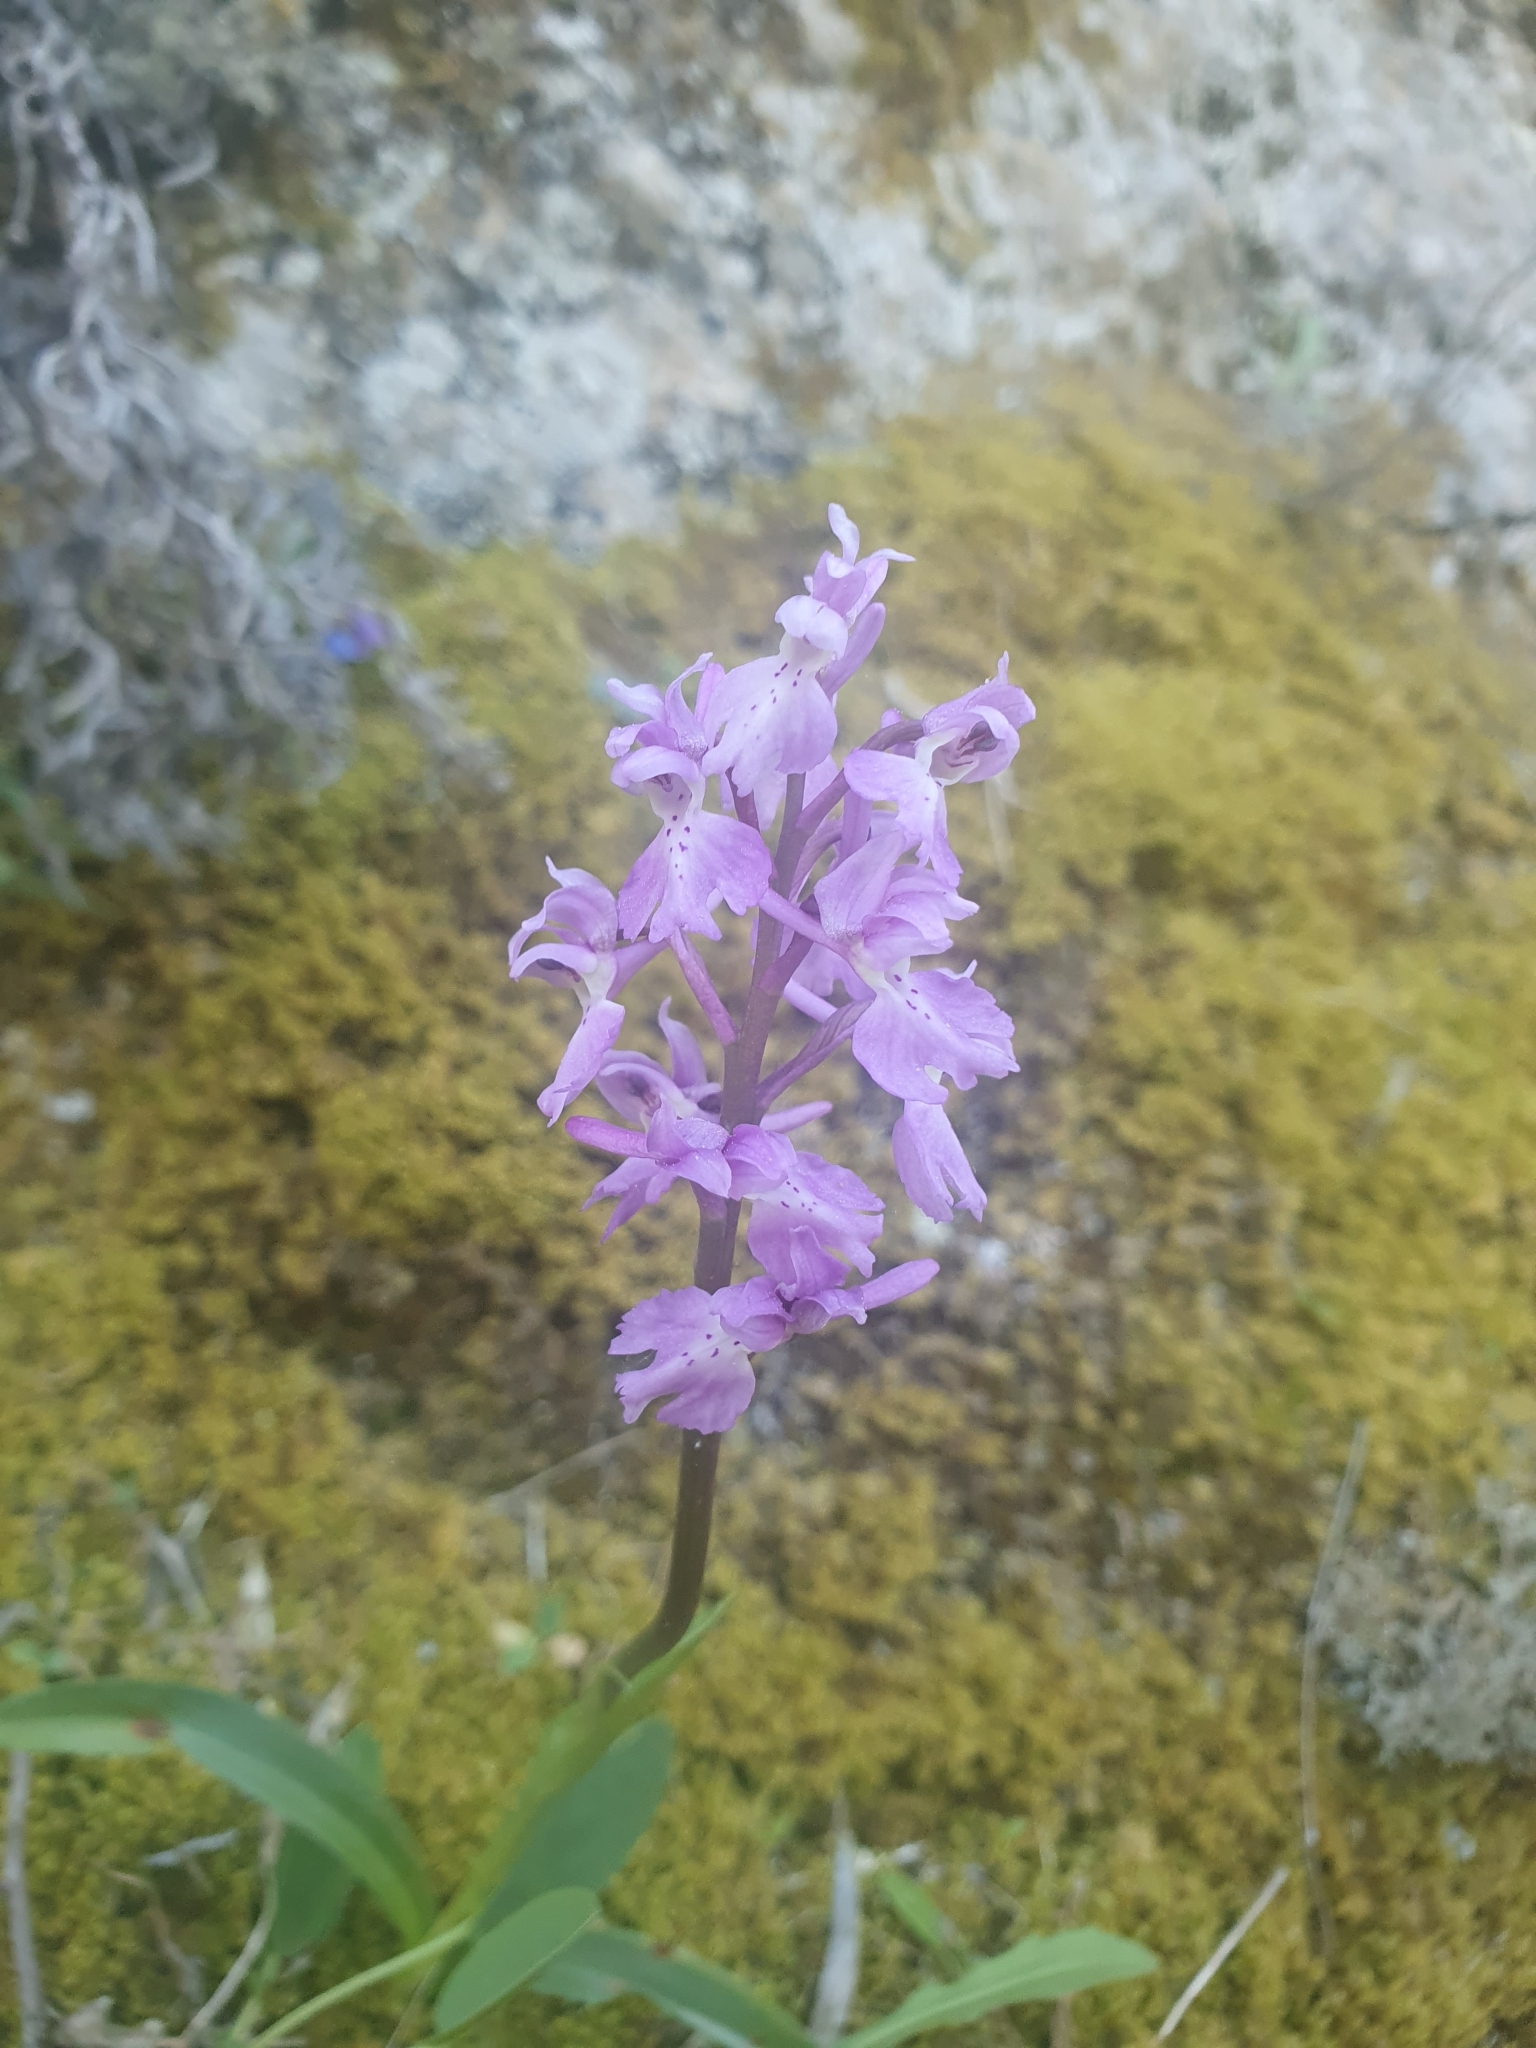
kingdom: Plantae
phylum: Tracheophyta
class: Liliopsida
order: Asparagales
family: Orchidaceae
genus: Orchis
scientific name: Orchis mascula
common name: Early-purple orchid
